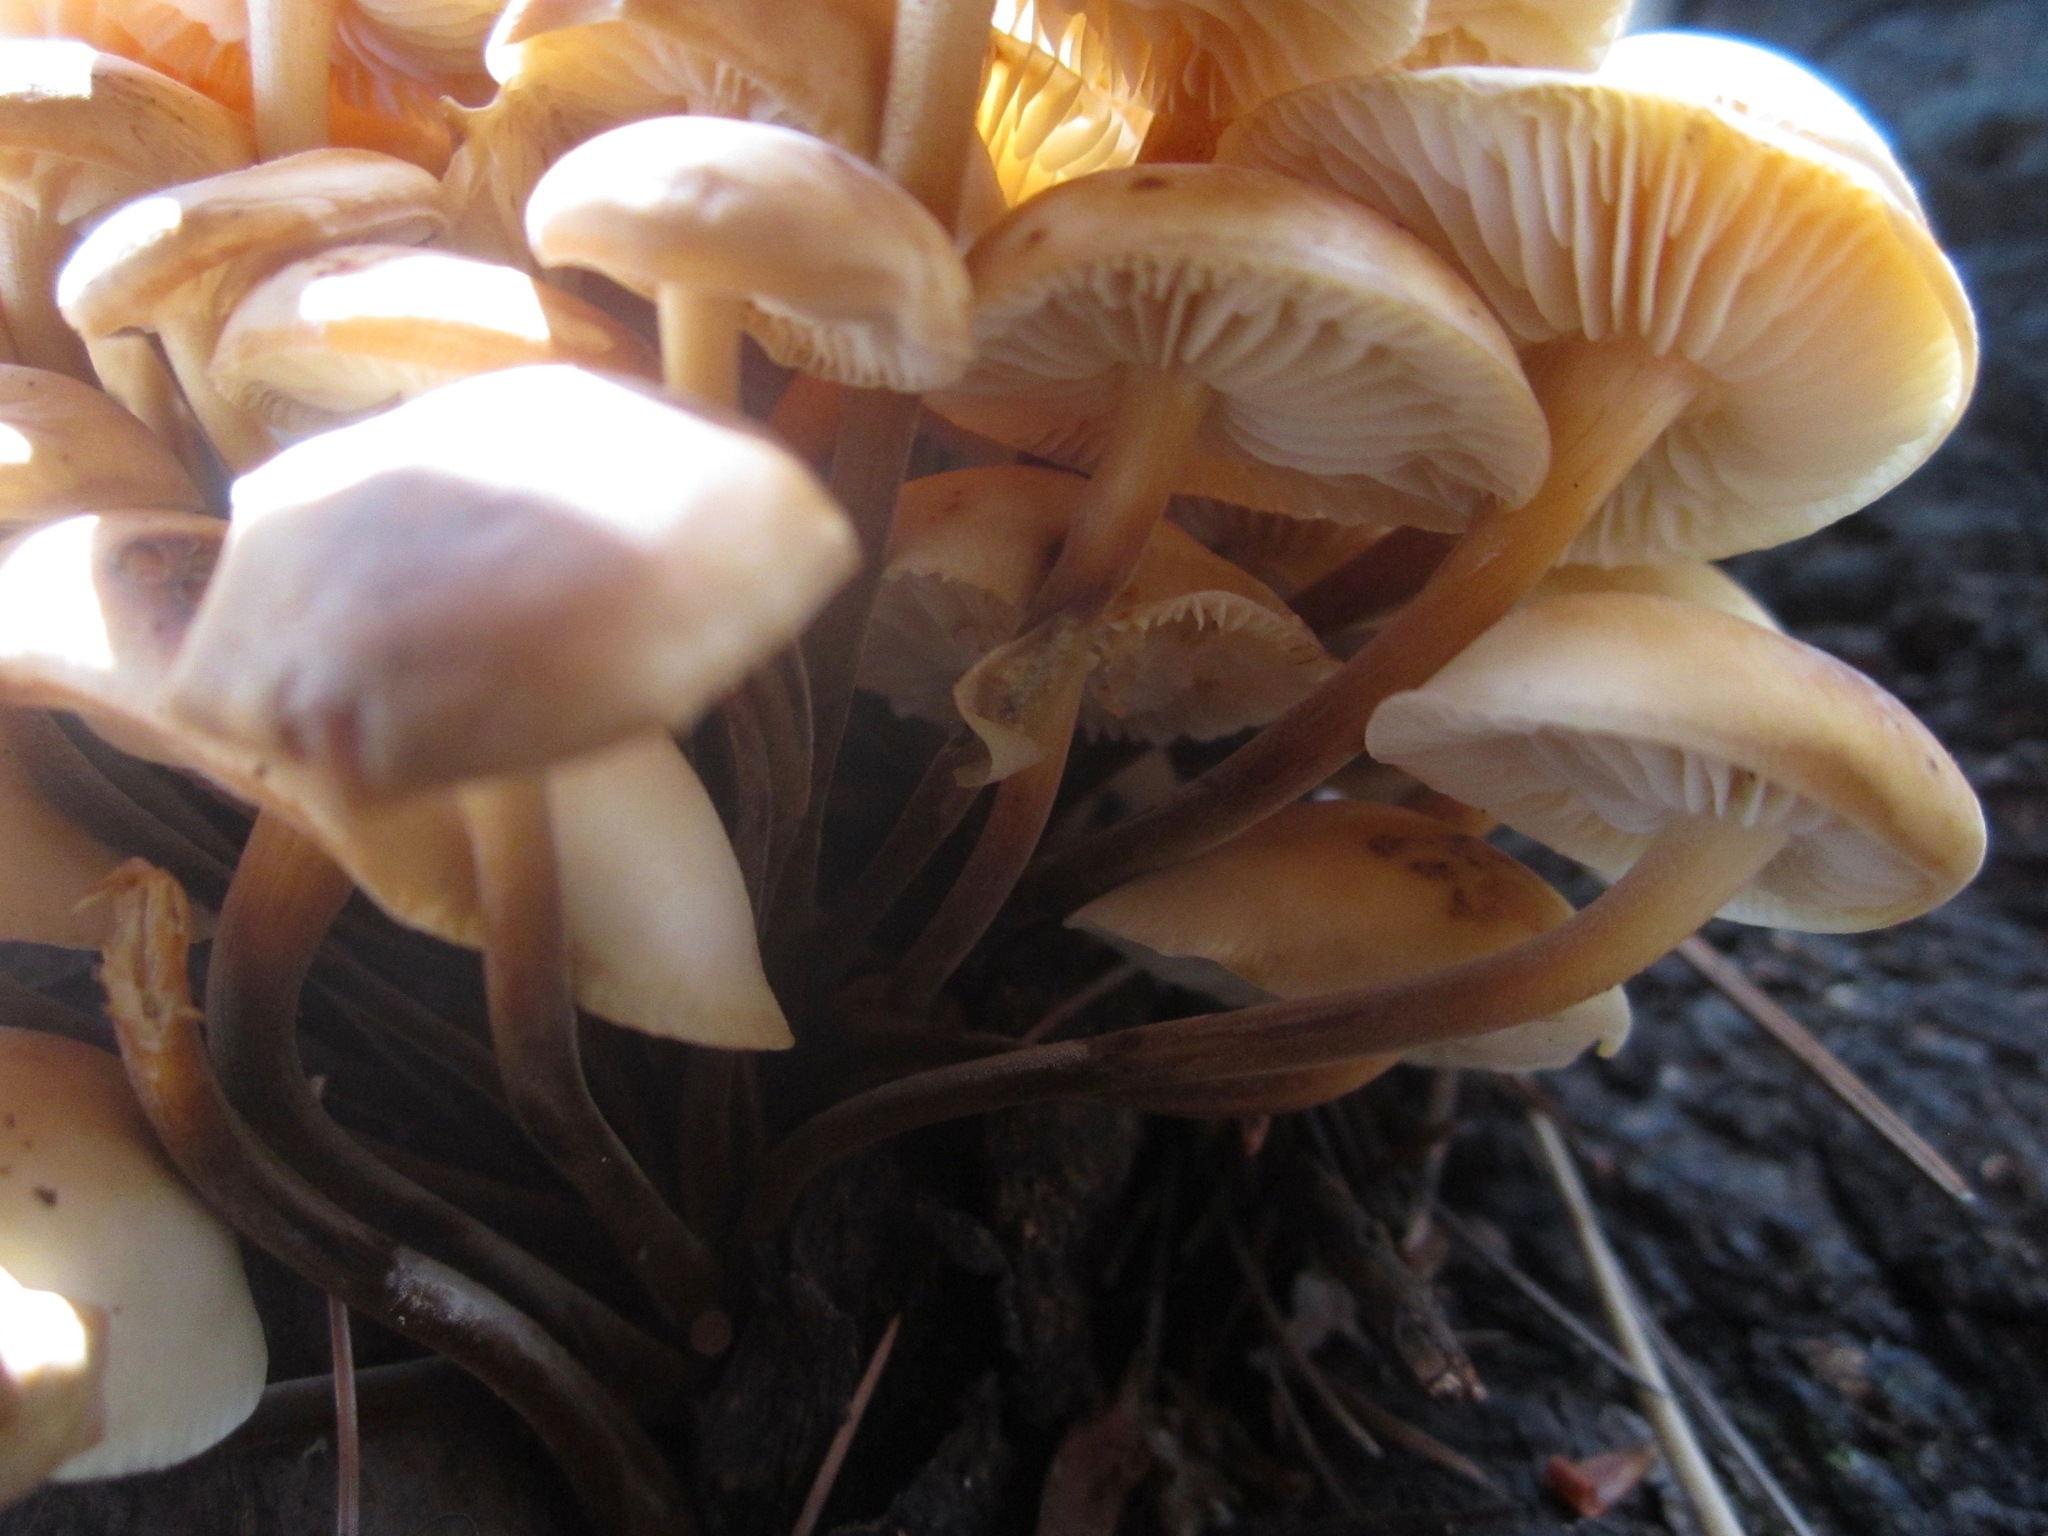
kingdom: Fungi
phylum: Basidiomycota
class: Agaricomycetes
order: Agaricales
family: Physalacriaceae
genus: Flammulina
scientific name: Flammulina populicola
